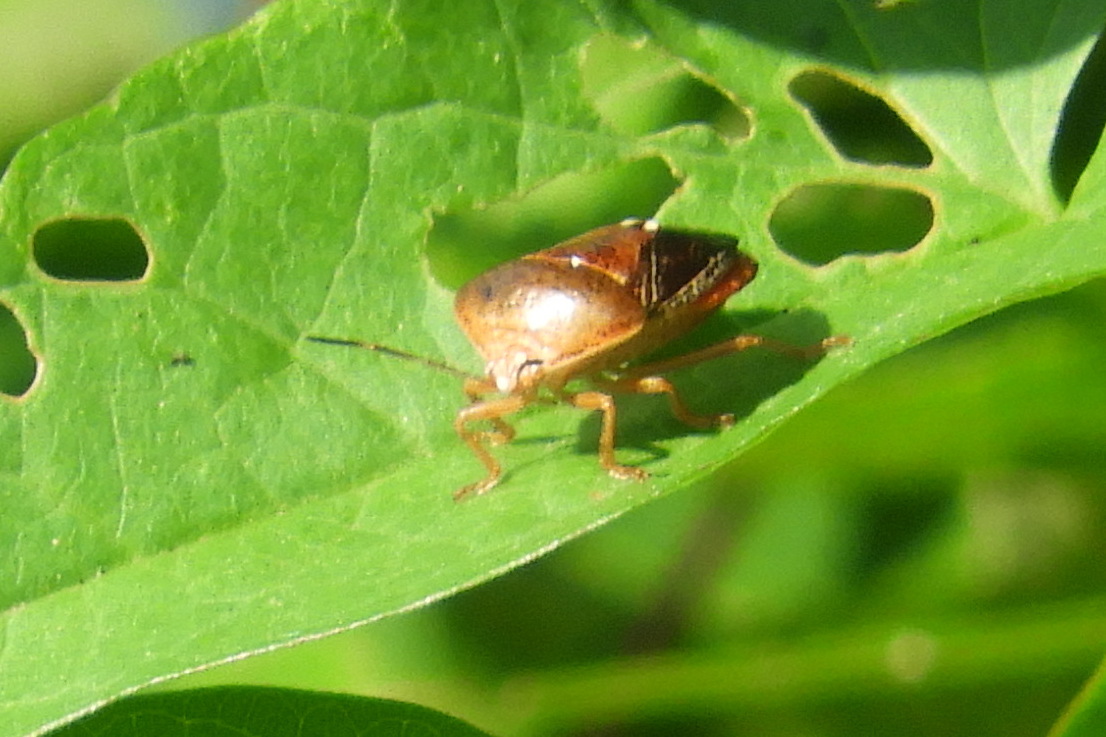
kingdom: Animalia
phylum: Arthropoda
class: Insecta
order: Hemiptera
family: Pentatomidae
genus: Edessa
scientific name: Edessa bifida
